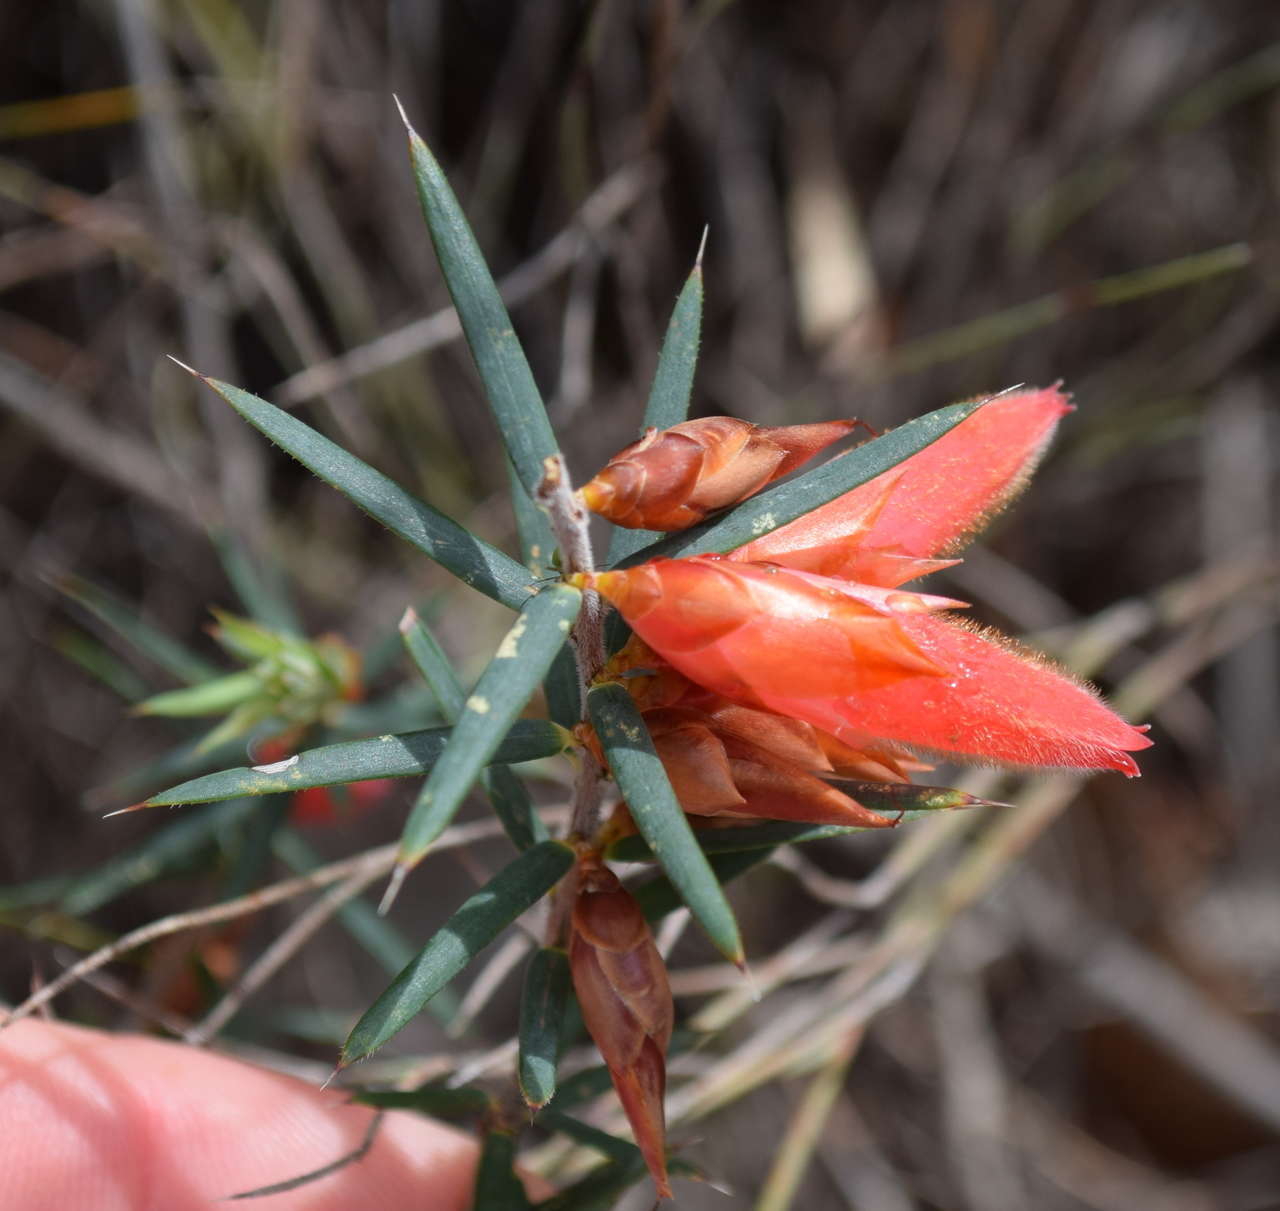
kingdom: Plantae
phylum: Tracheophyta
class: Magnoliopsida
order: Ericales
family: Ericaceae
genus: Stenanthera
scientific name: Stenanthera conostephioides
